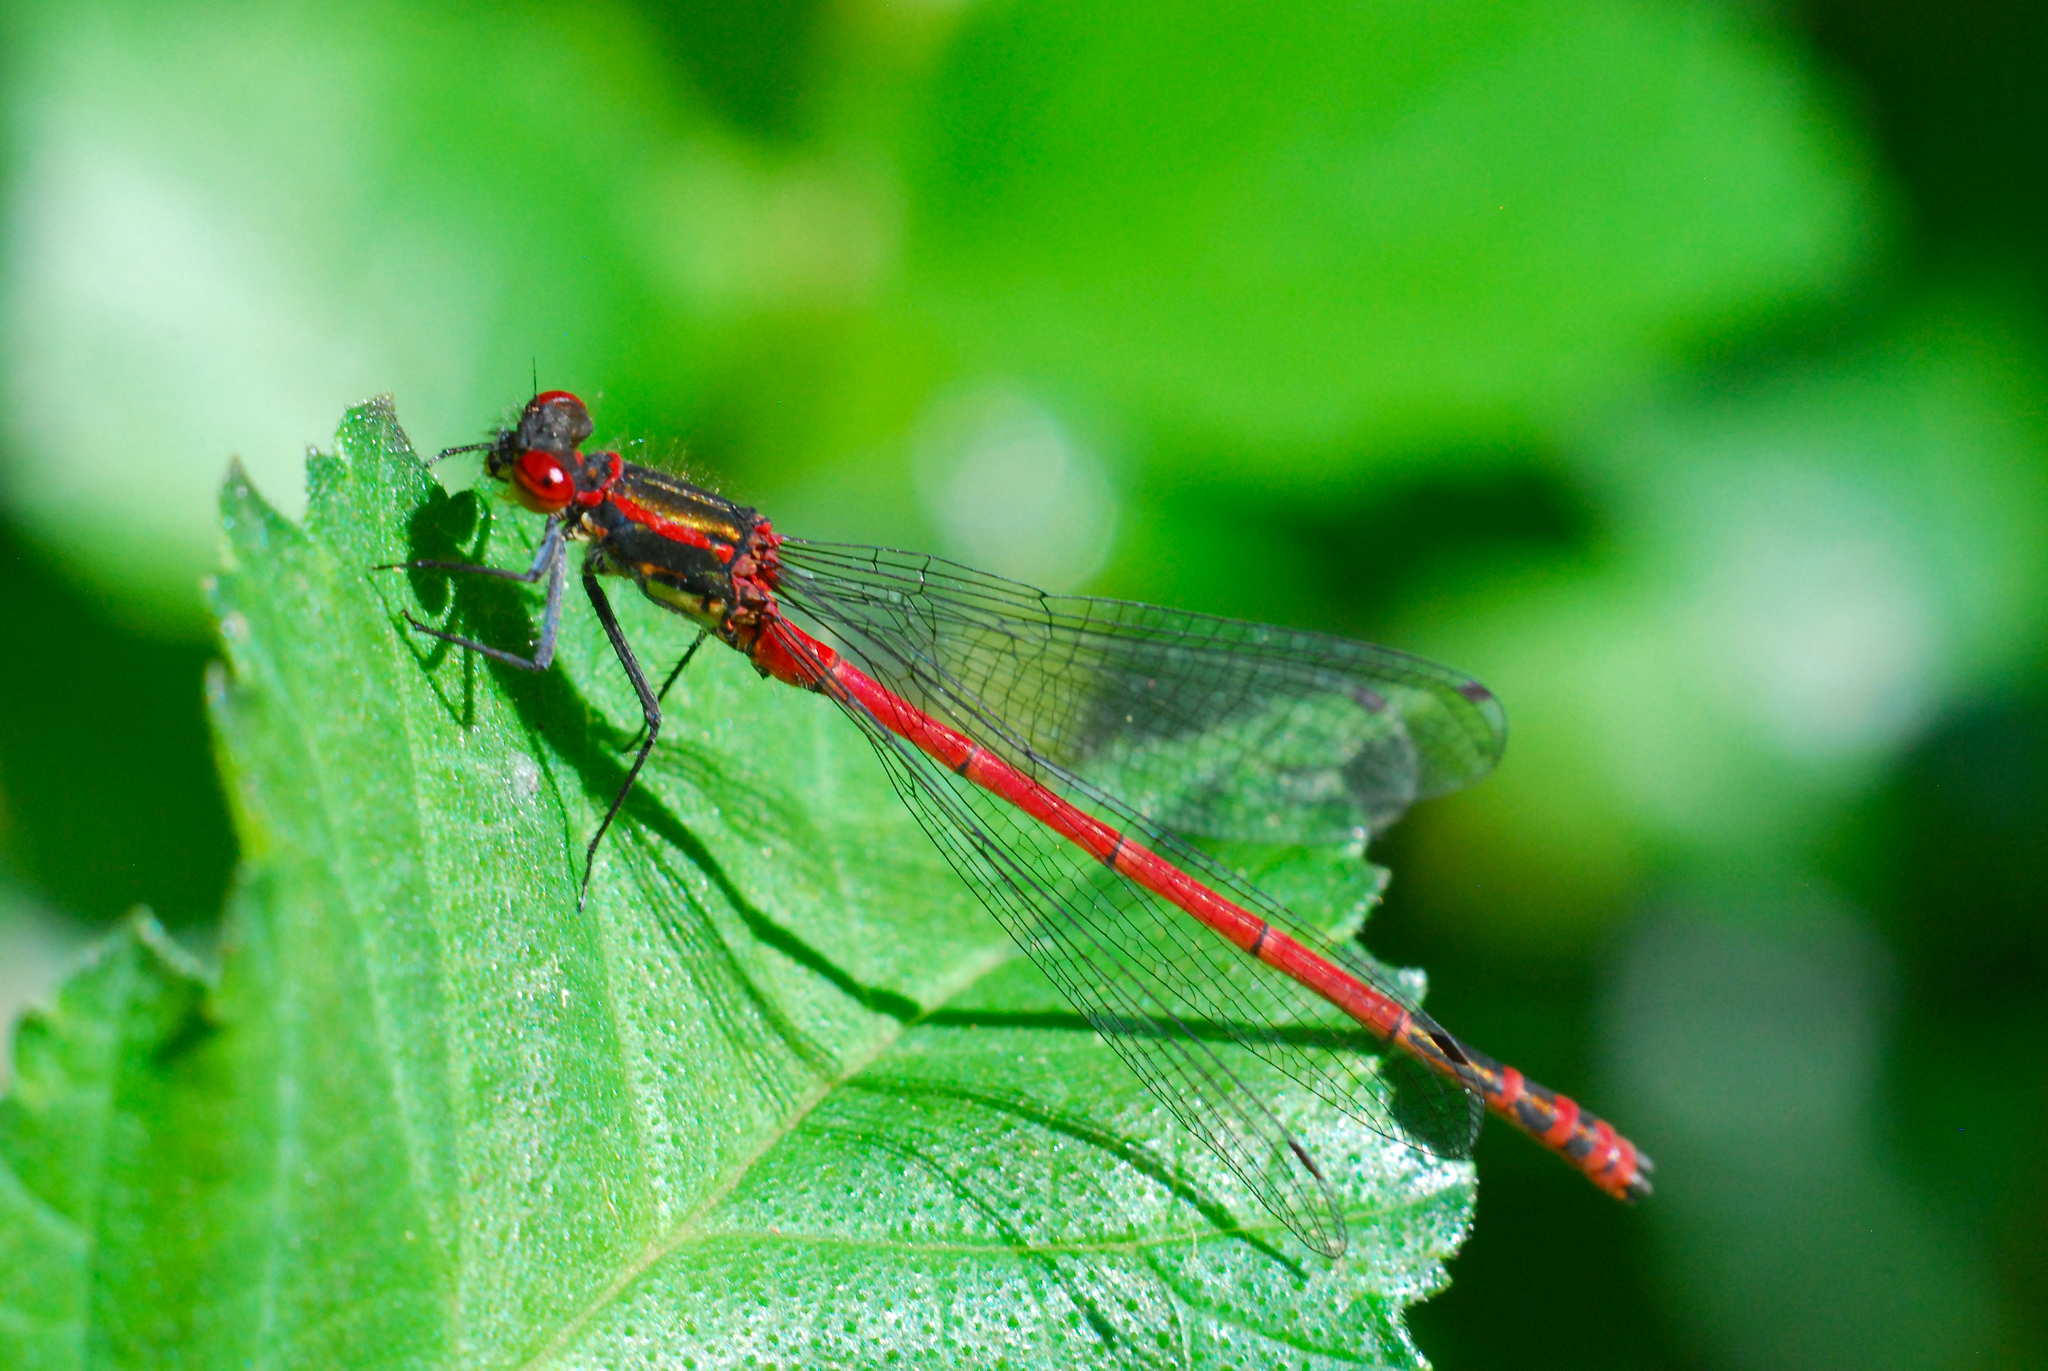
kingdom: Animalia
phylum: Arthropoda
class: Insecta
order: Odonata
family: Coenagrionidae
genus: Pyrrhosoma
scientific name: Pyrrhosoma nymphula
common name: Large red damsel
